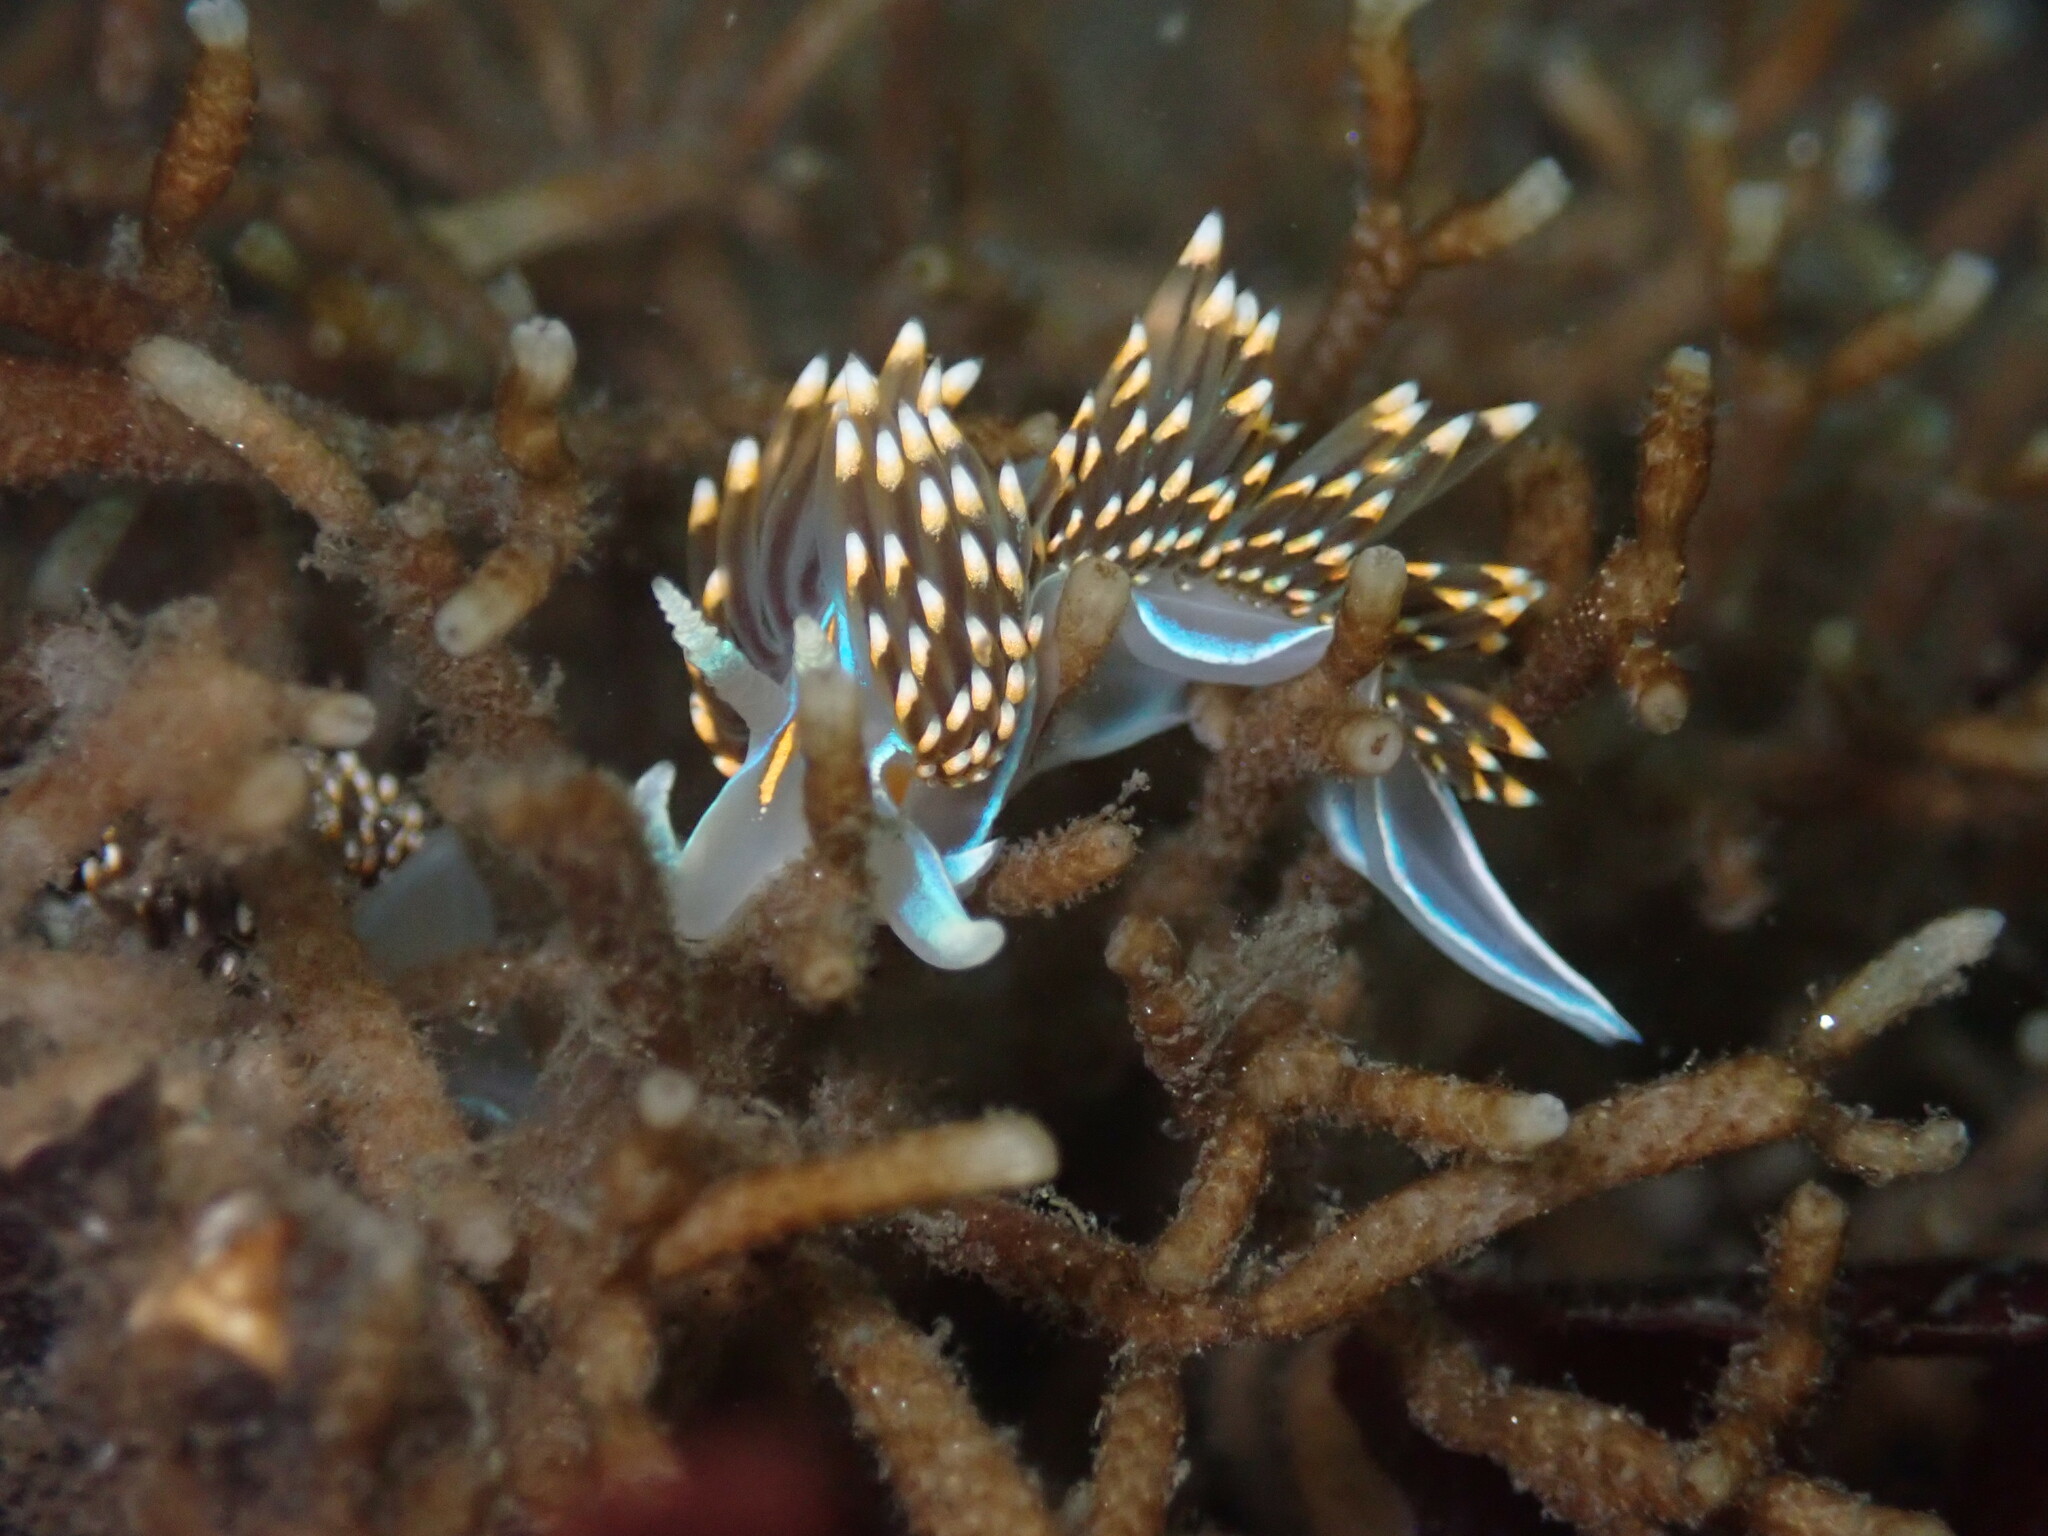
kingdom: Animalia
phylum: Mollusca
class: Gastropoda
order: Nudibranchia
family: Myrrhinidae
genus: Hermissenda
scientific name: Hermissenda opalescens
